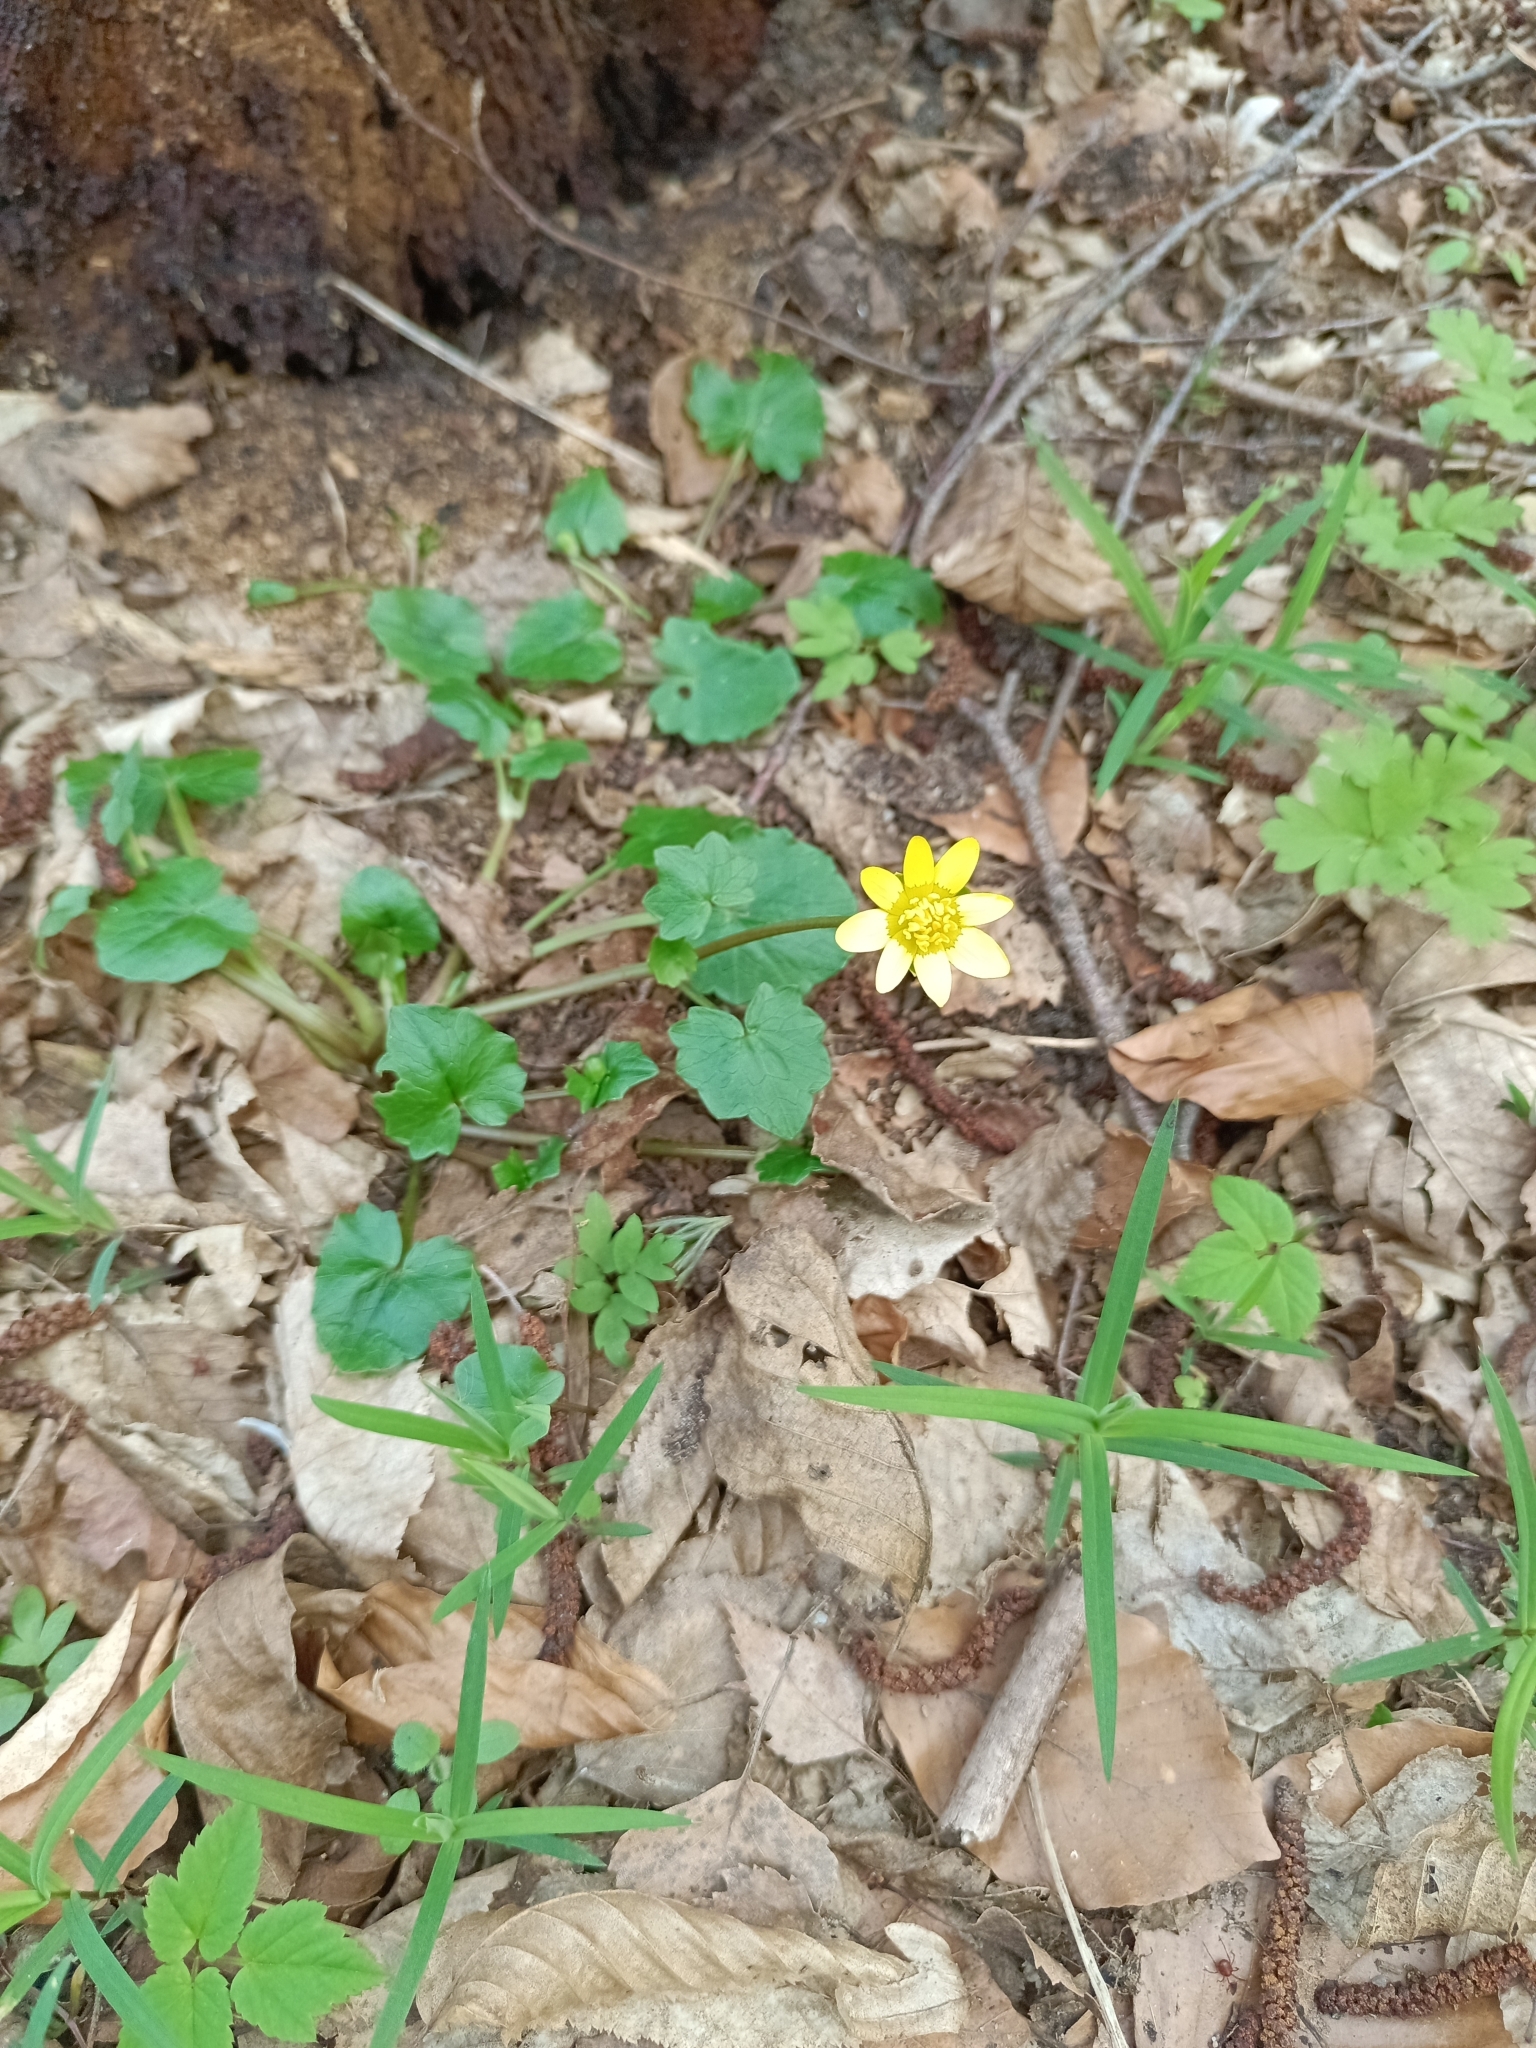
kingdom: Plantae
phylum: Tracheophyta
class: Magnoliopsida
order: Ranunculales
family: Ranunculaceae
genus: Ficaria
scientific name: Ficaria verna
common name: Lesser celandine
